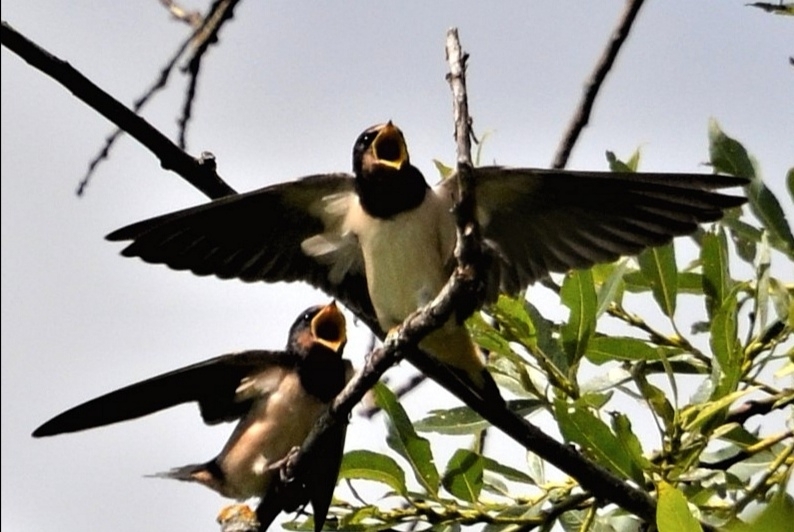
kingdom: Animalia
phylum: Chordata
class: Aves
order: Passeriformes
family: Hirundinidae
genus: Hirundo
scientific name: Hirundo rustica
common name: Barn swallow
